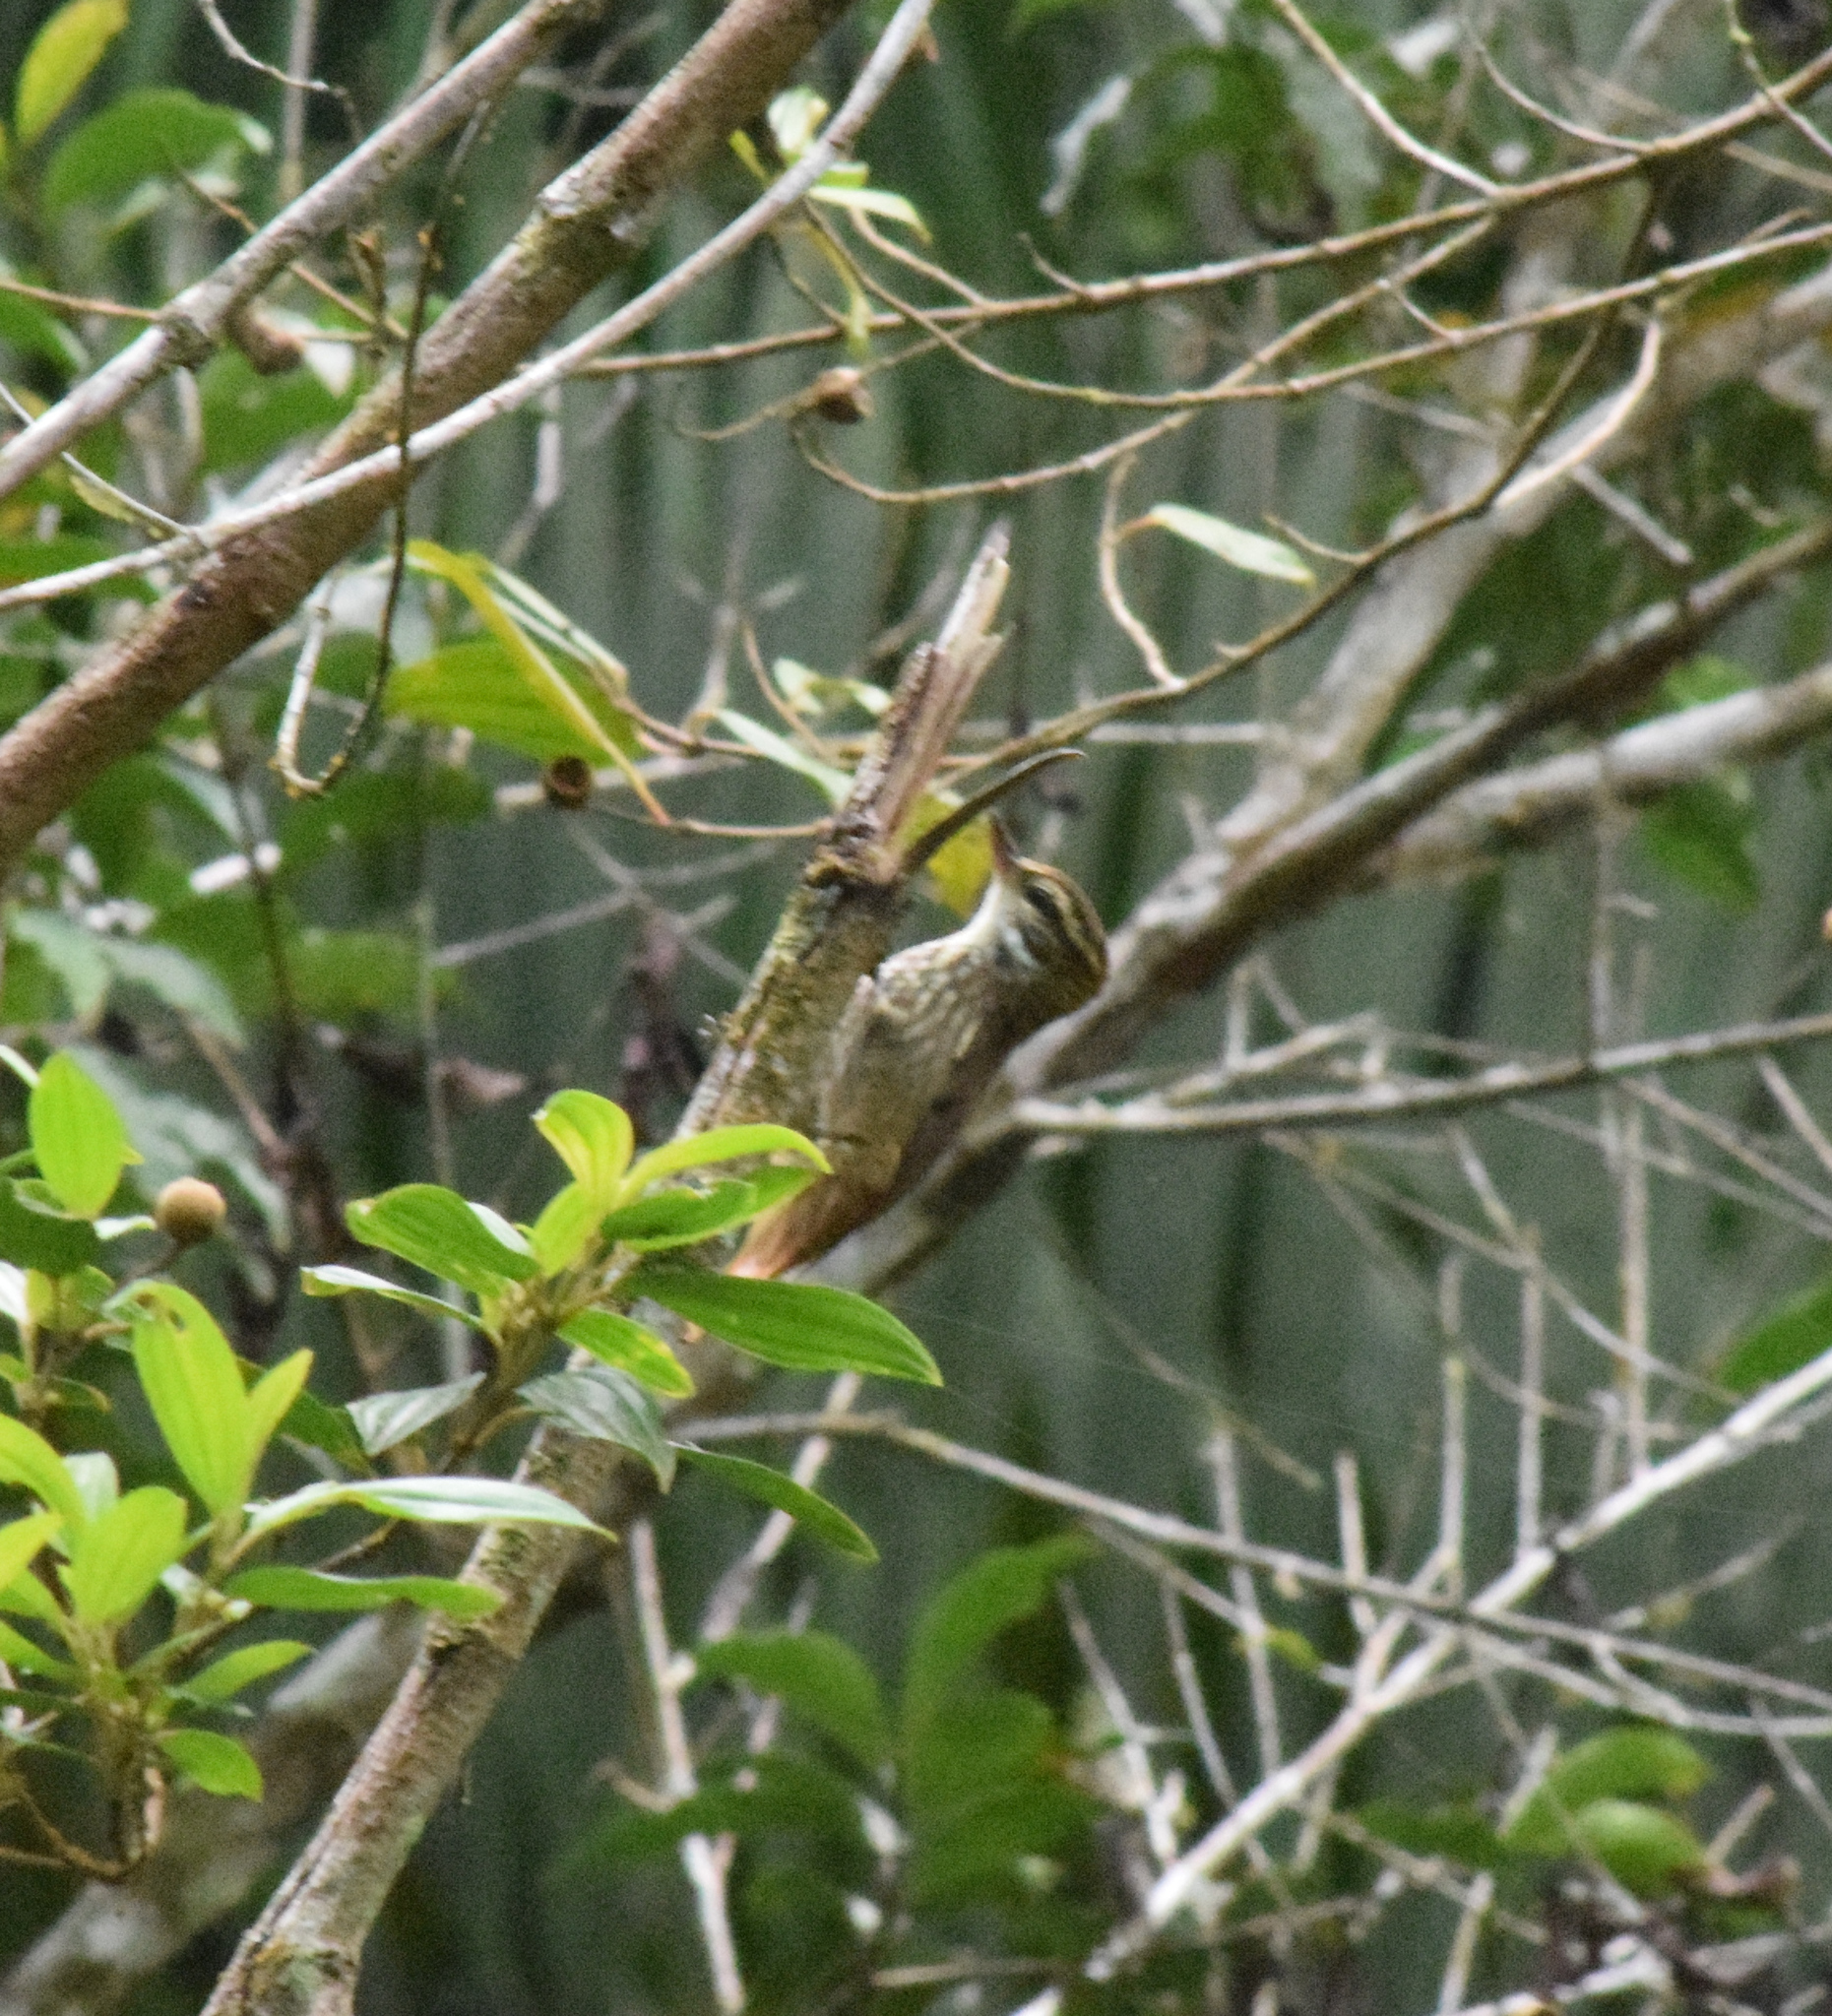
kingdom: Animalia
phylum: Chordata
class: Aves
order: Passeriformes
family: Furnariidae
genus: Xenops
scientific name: Xenops rutilans
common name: Streaked xenops
